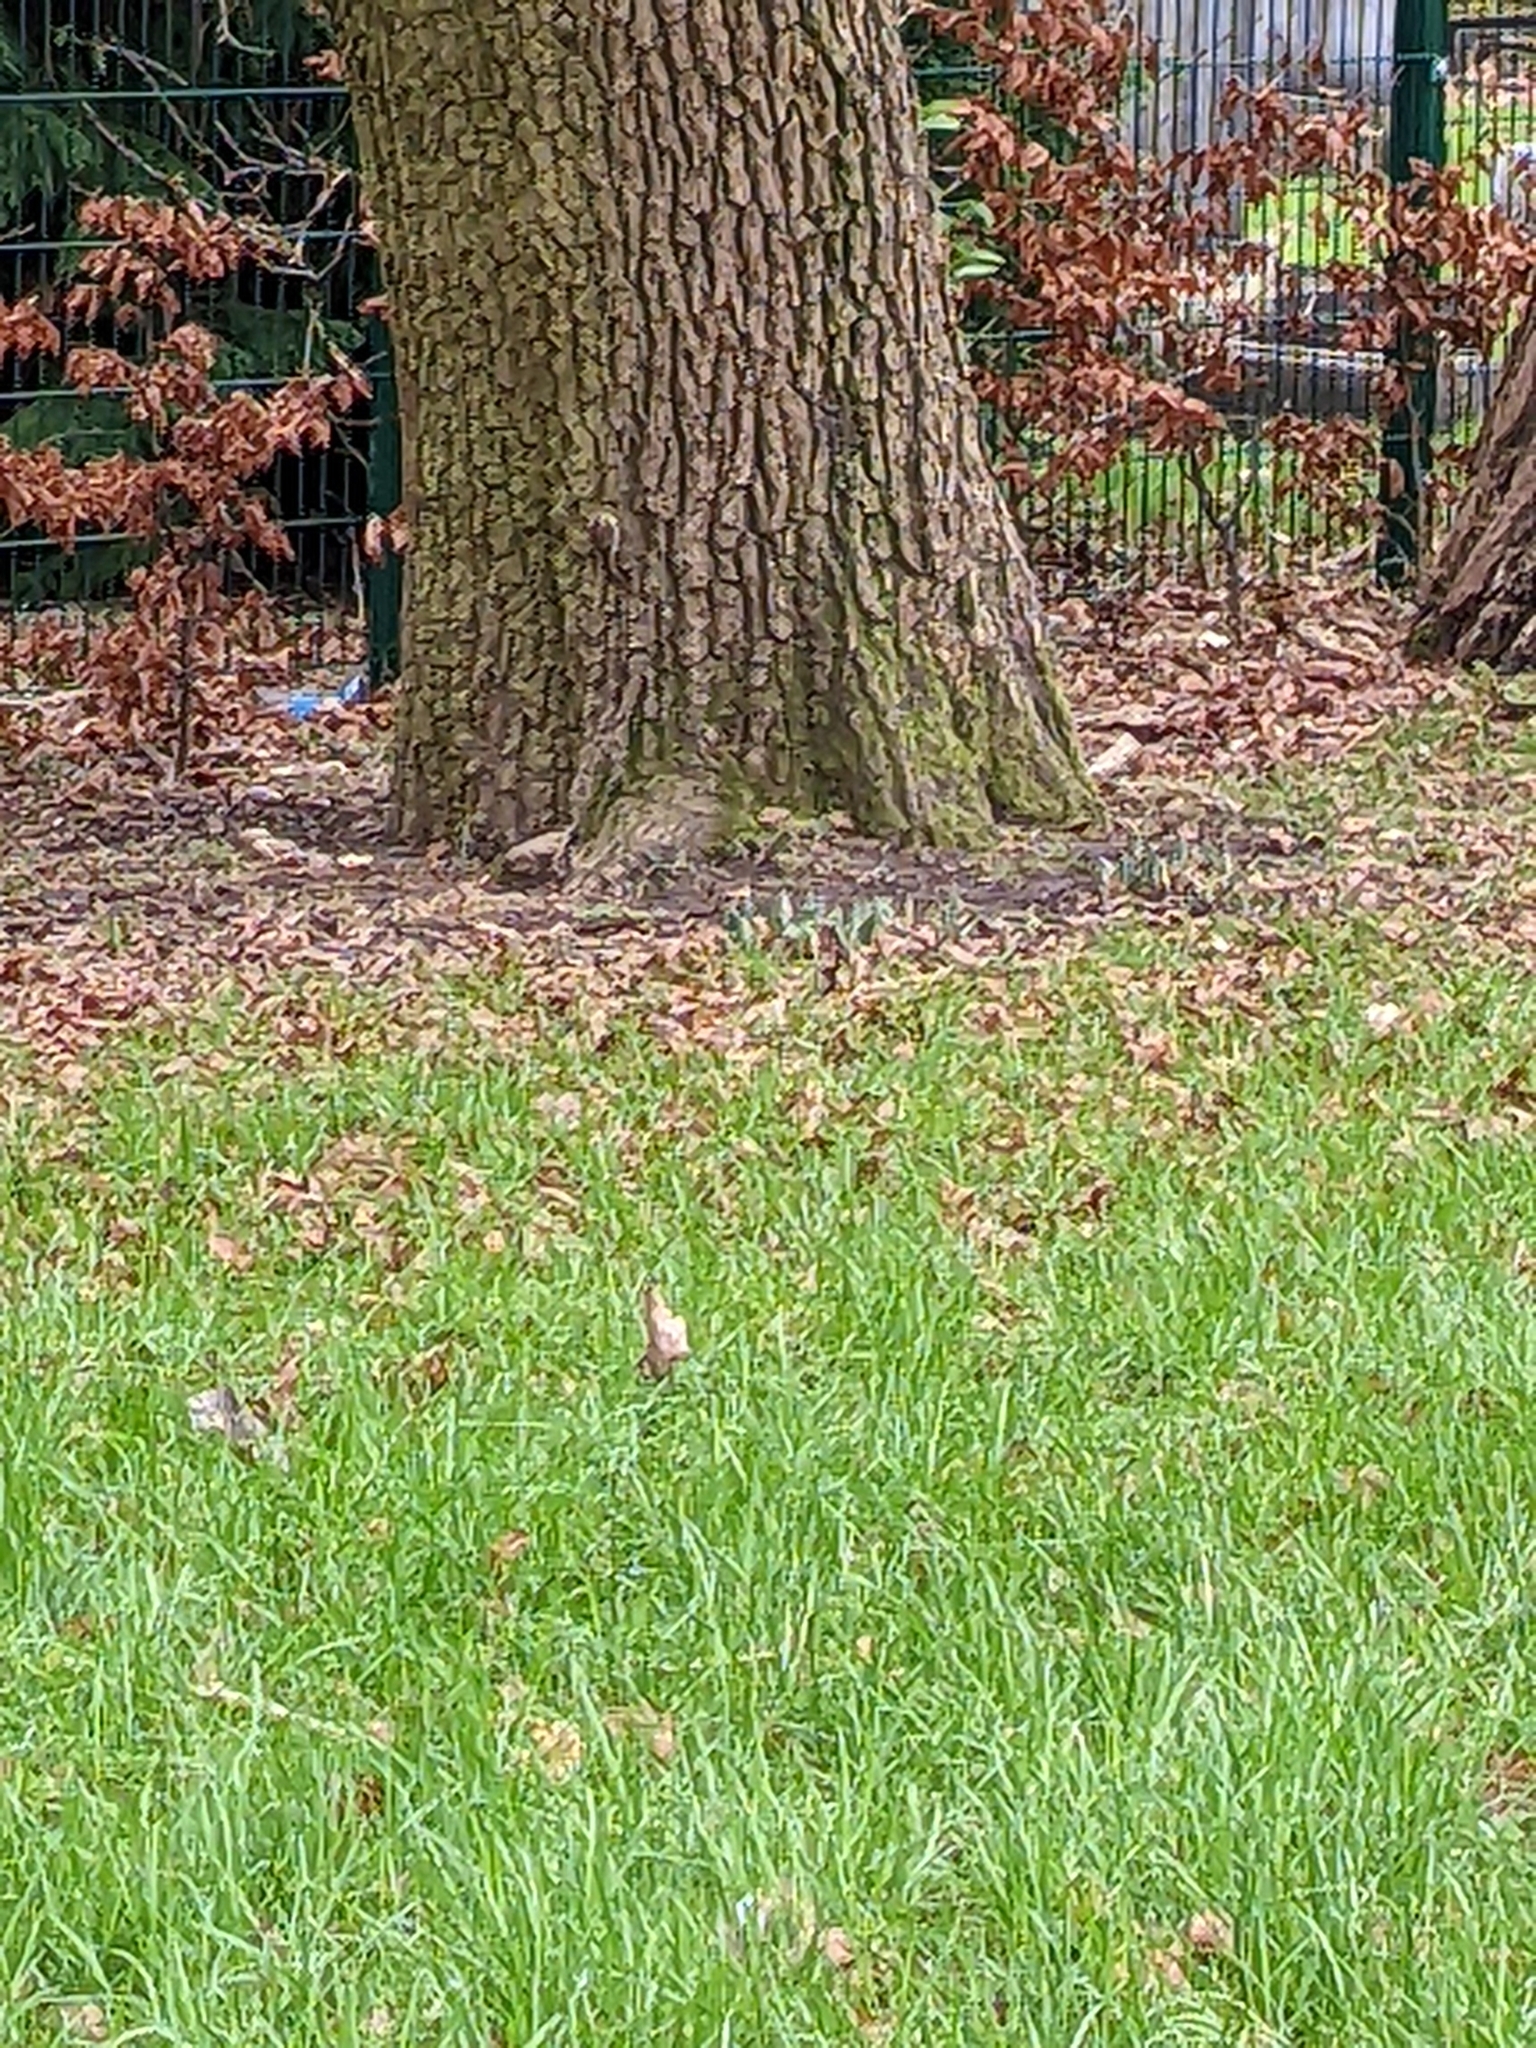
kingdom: Animalia
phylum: Chordata
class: Aves
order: Passeriformes
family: Certhiidae
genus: Certhia
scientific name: Certhia familiaris
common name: Eurasian treecreeper
